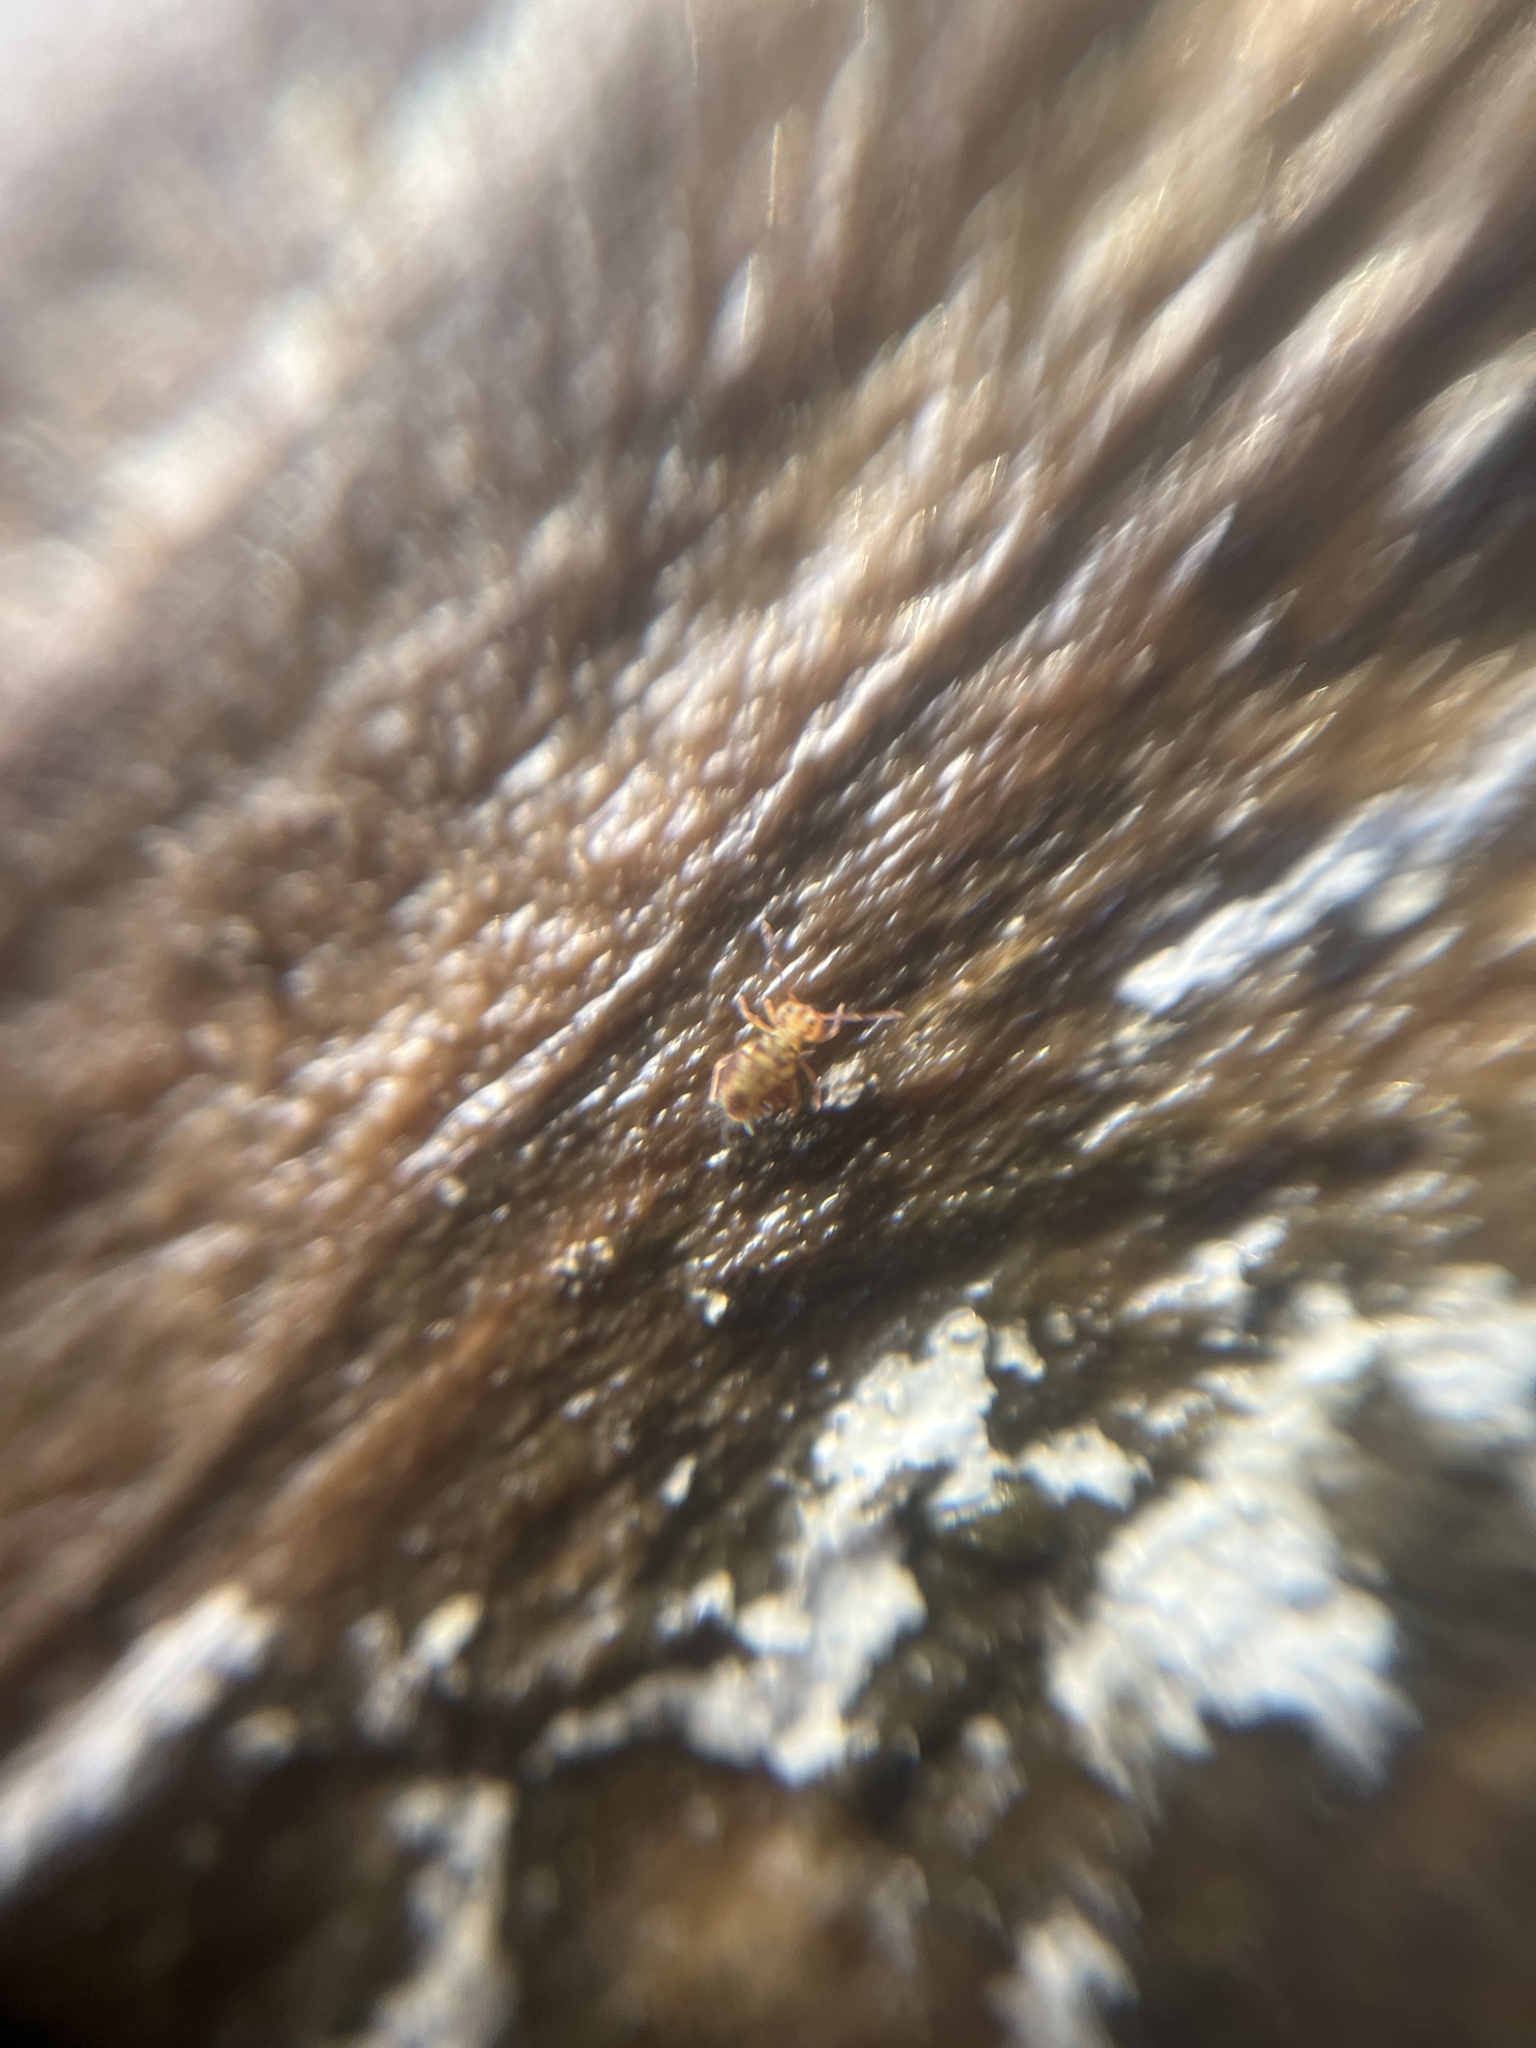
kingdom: Animalia
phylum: Arthropoda
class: Collembola
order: Symphypleona
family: Dicyrtomidae
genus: Dicyrtomina
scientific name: Dicyrtomina saundersi
